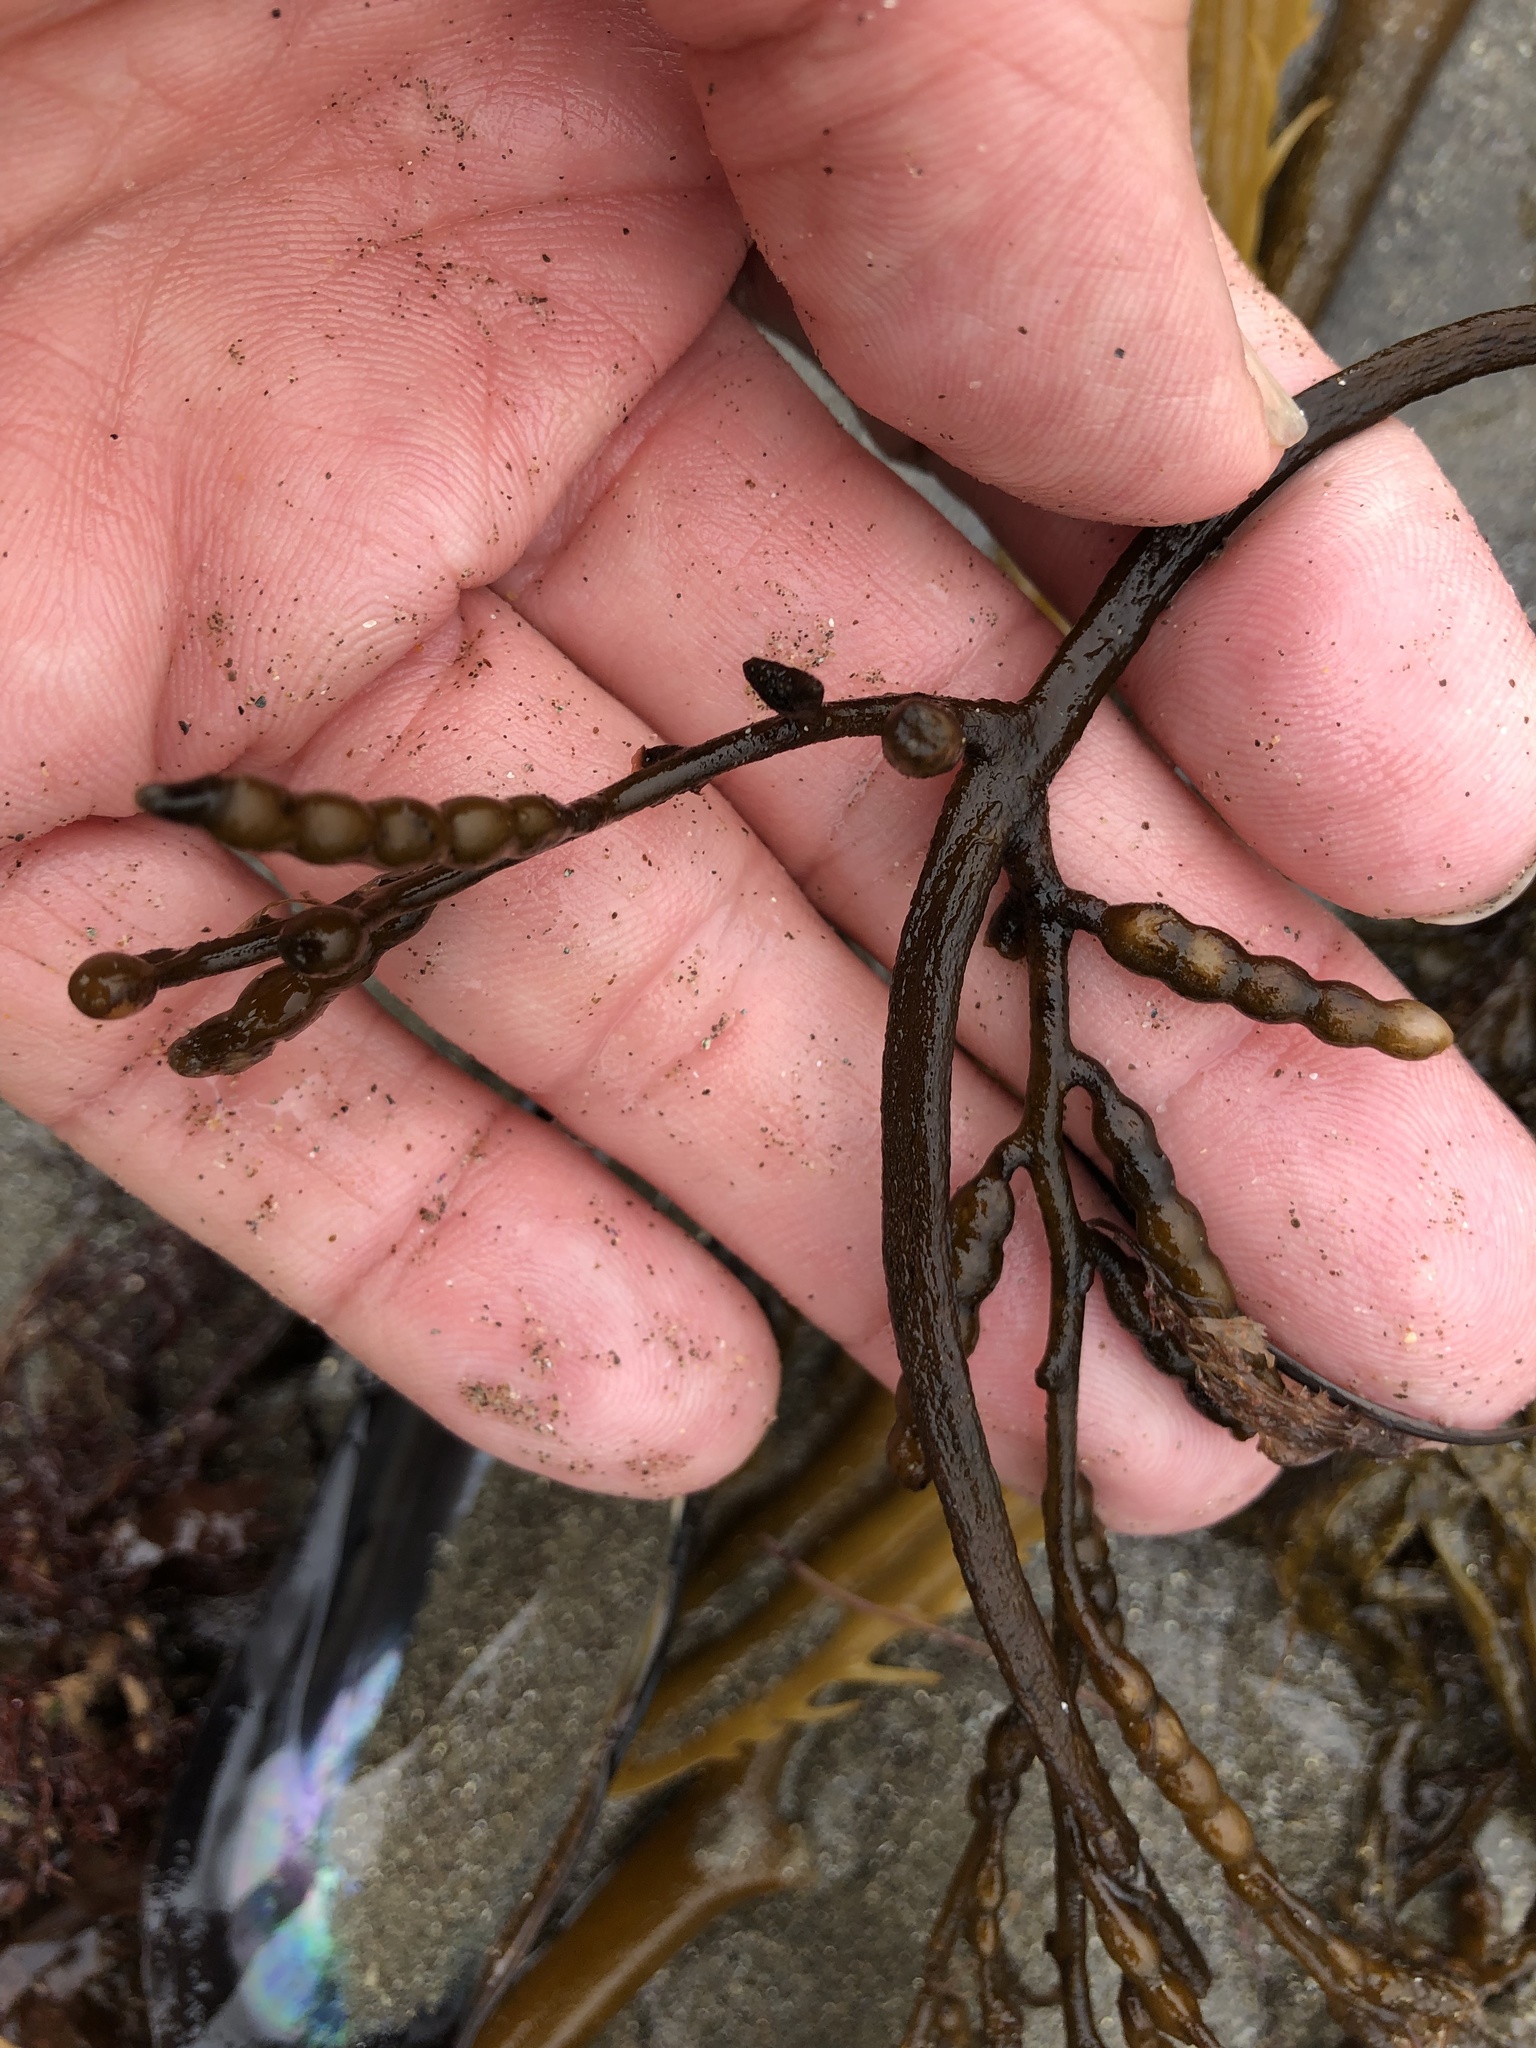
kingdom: Chromista
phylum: Ochrophyta
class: Phaeophyceae
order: Fucales
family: Sargassaceae
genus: Stephanocystis
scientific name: Stephanocystis
